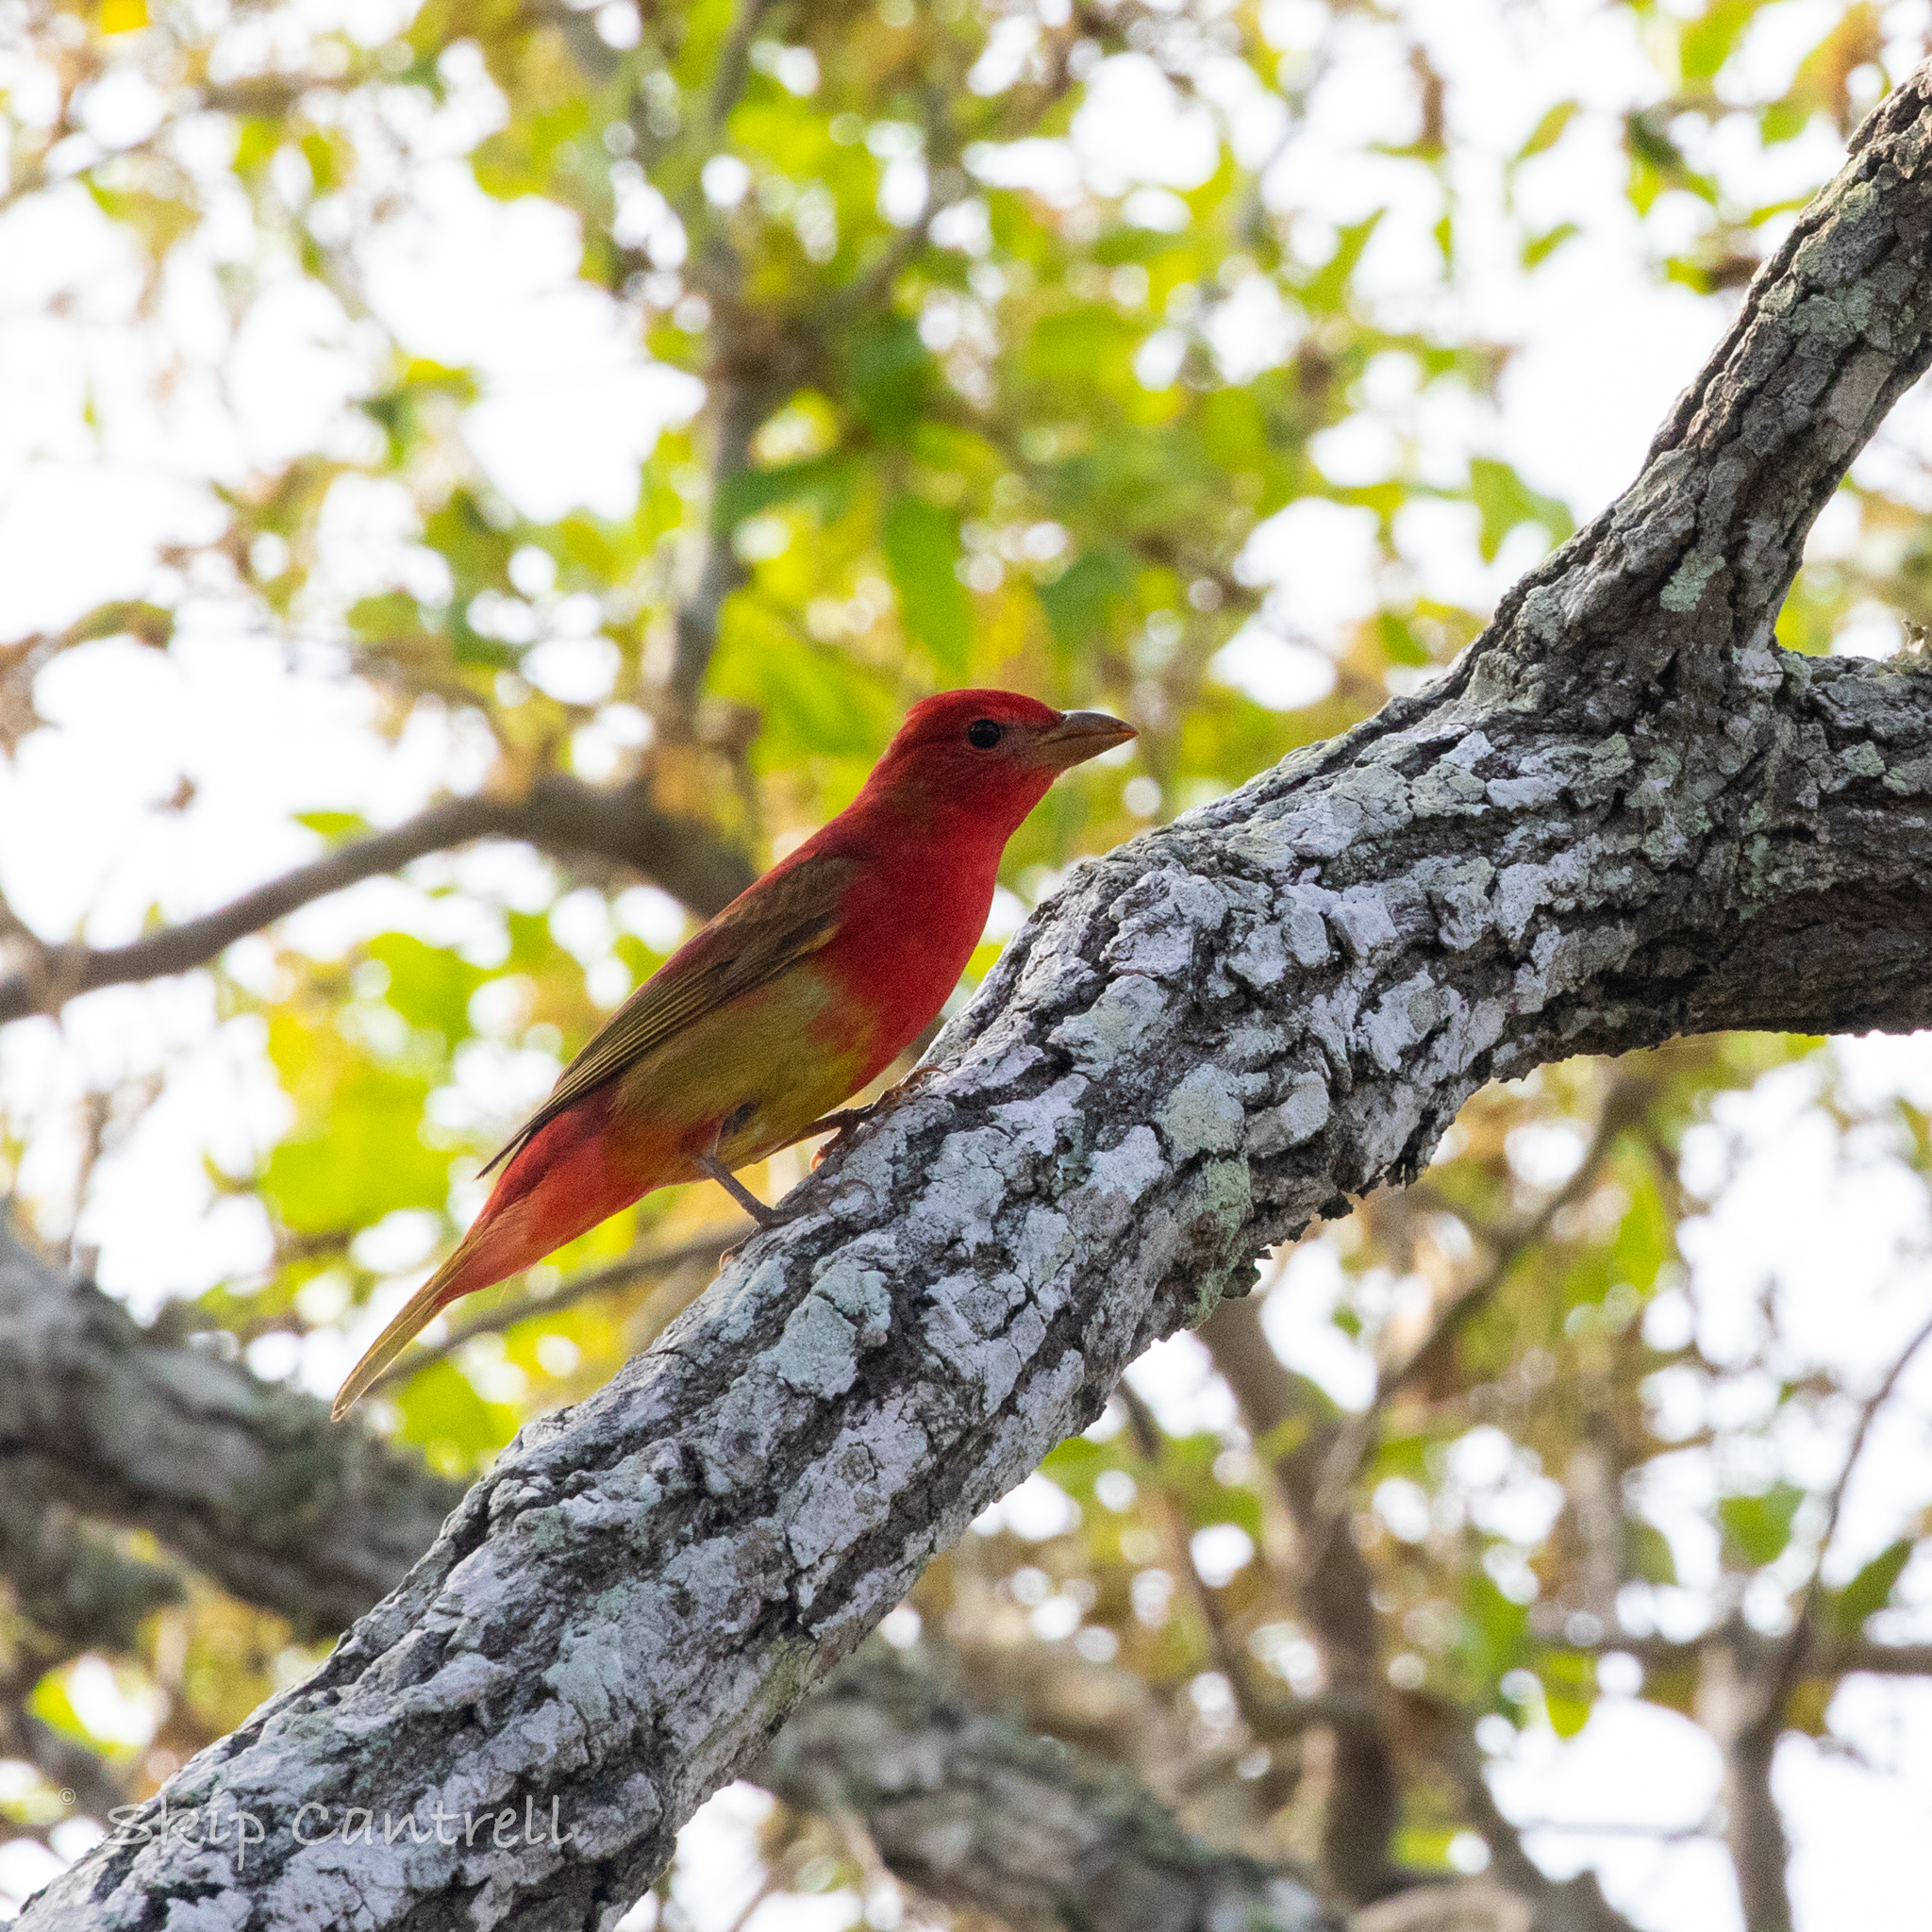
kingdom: Animalia
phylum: Chordata
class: Aves
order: Passeriformes
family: Cardinalidae
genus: Piranga
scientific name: Piranga rubra
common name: Summer tanager
